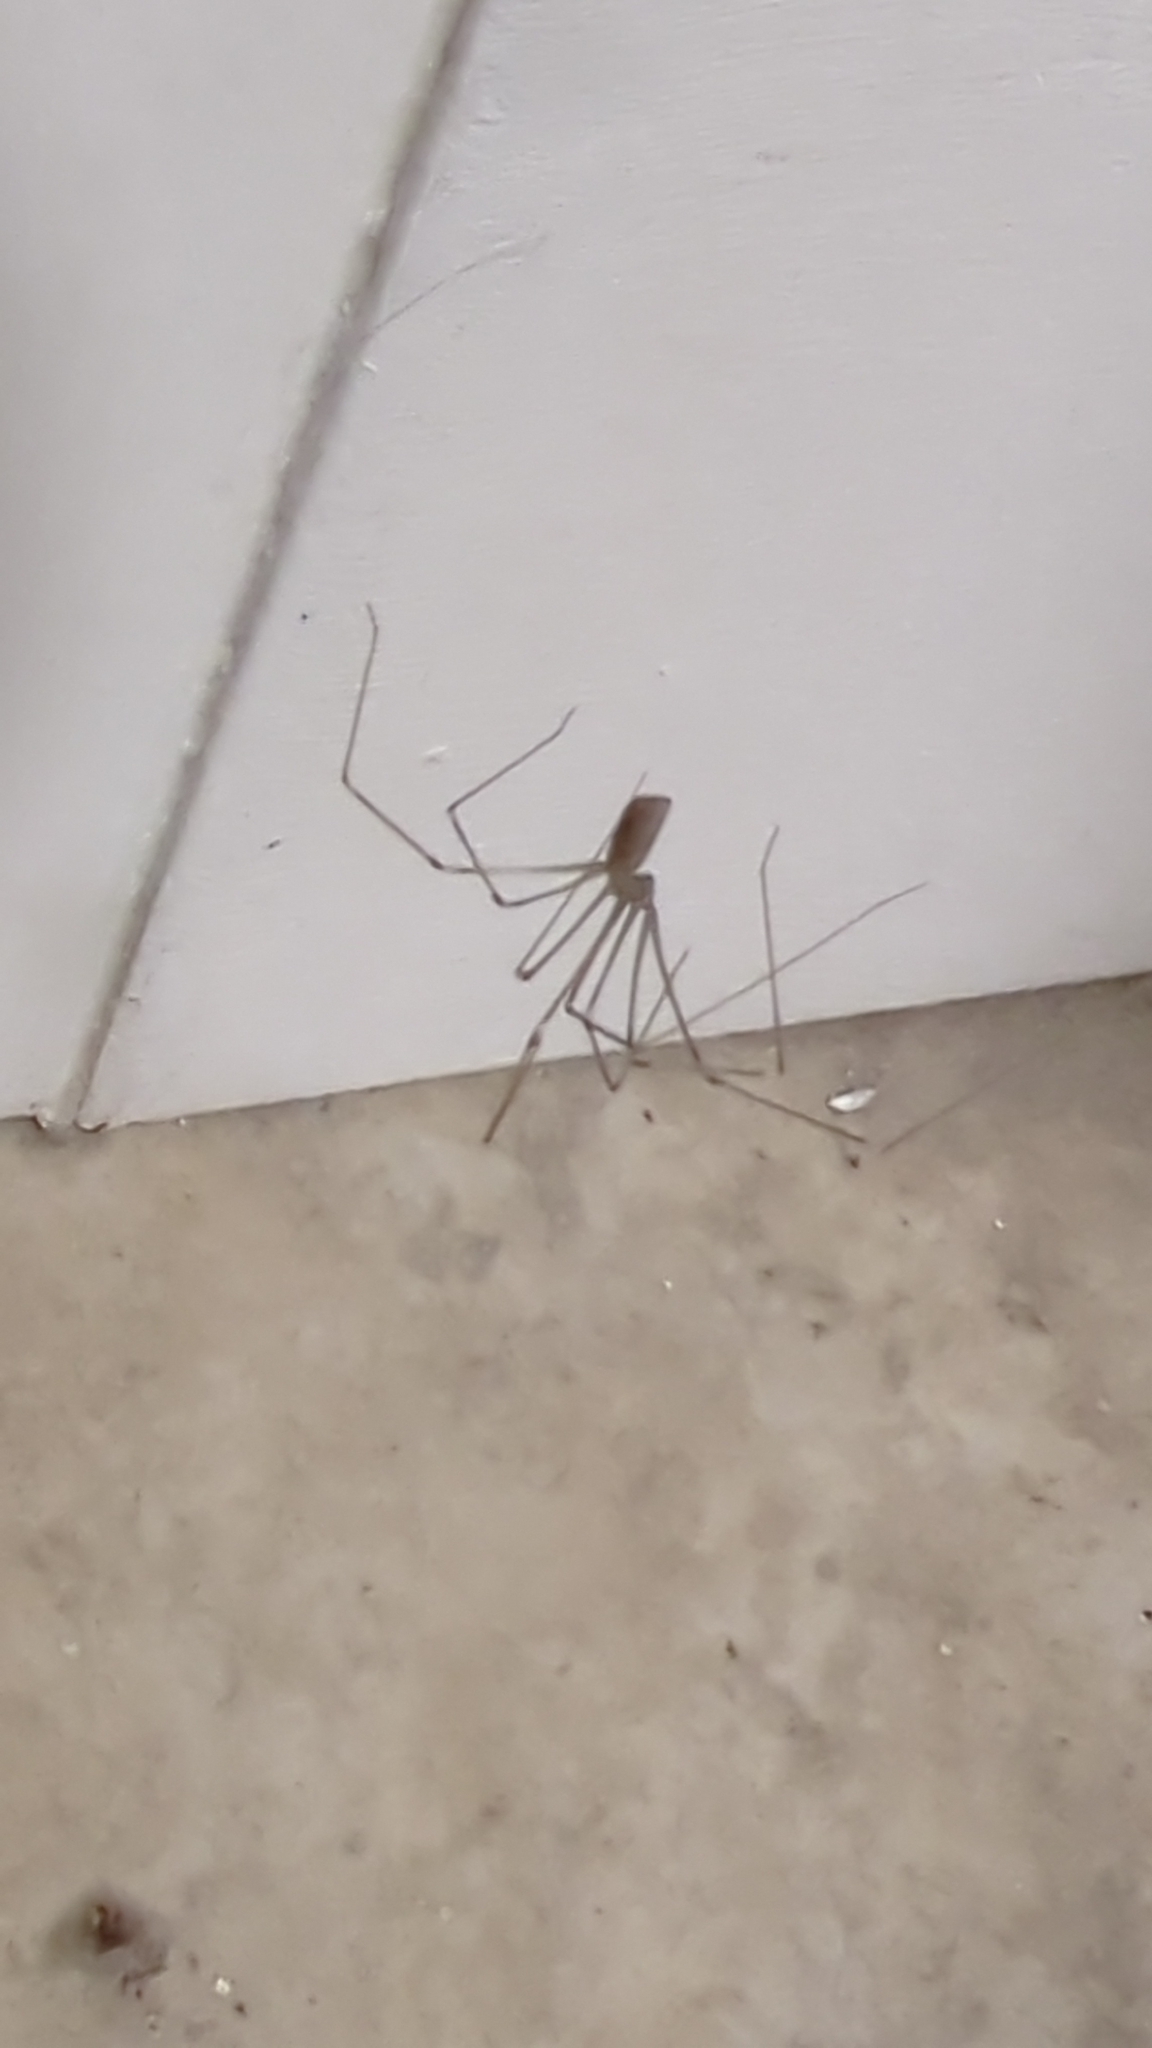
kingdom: Animalia
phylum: Arthropoda
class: Arachnida
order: Araneae
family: Pholcidae
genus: Pholcus
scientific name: Pholcus phalangioides
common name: Longbodied cellar spider
